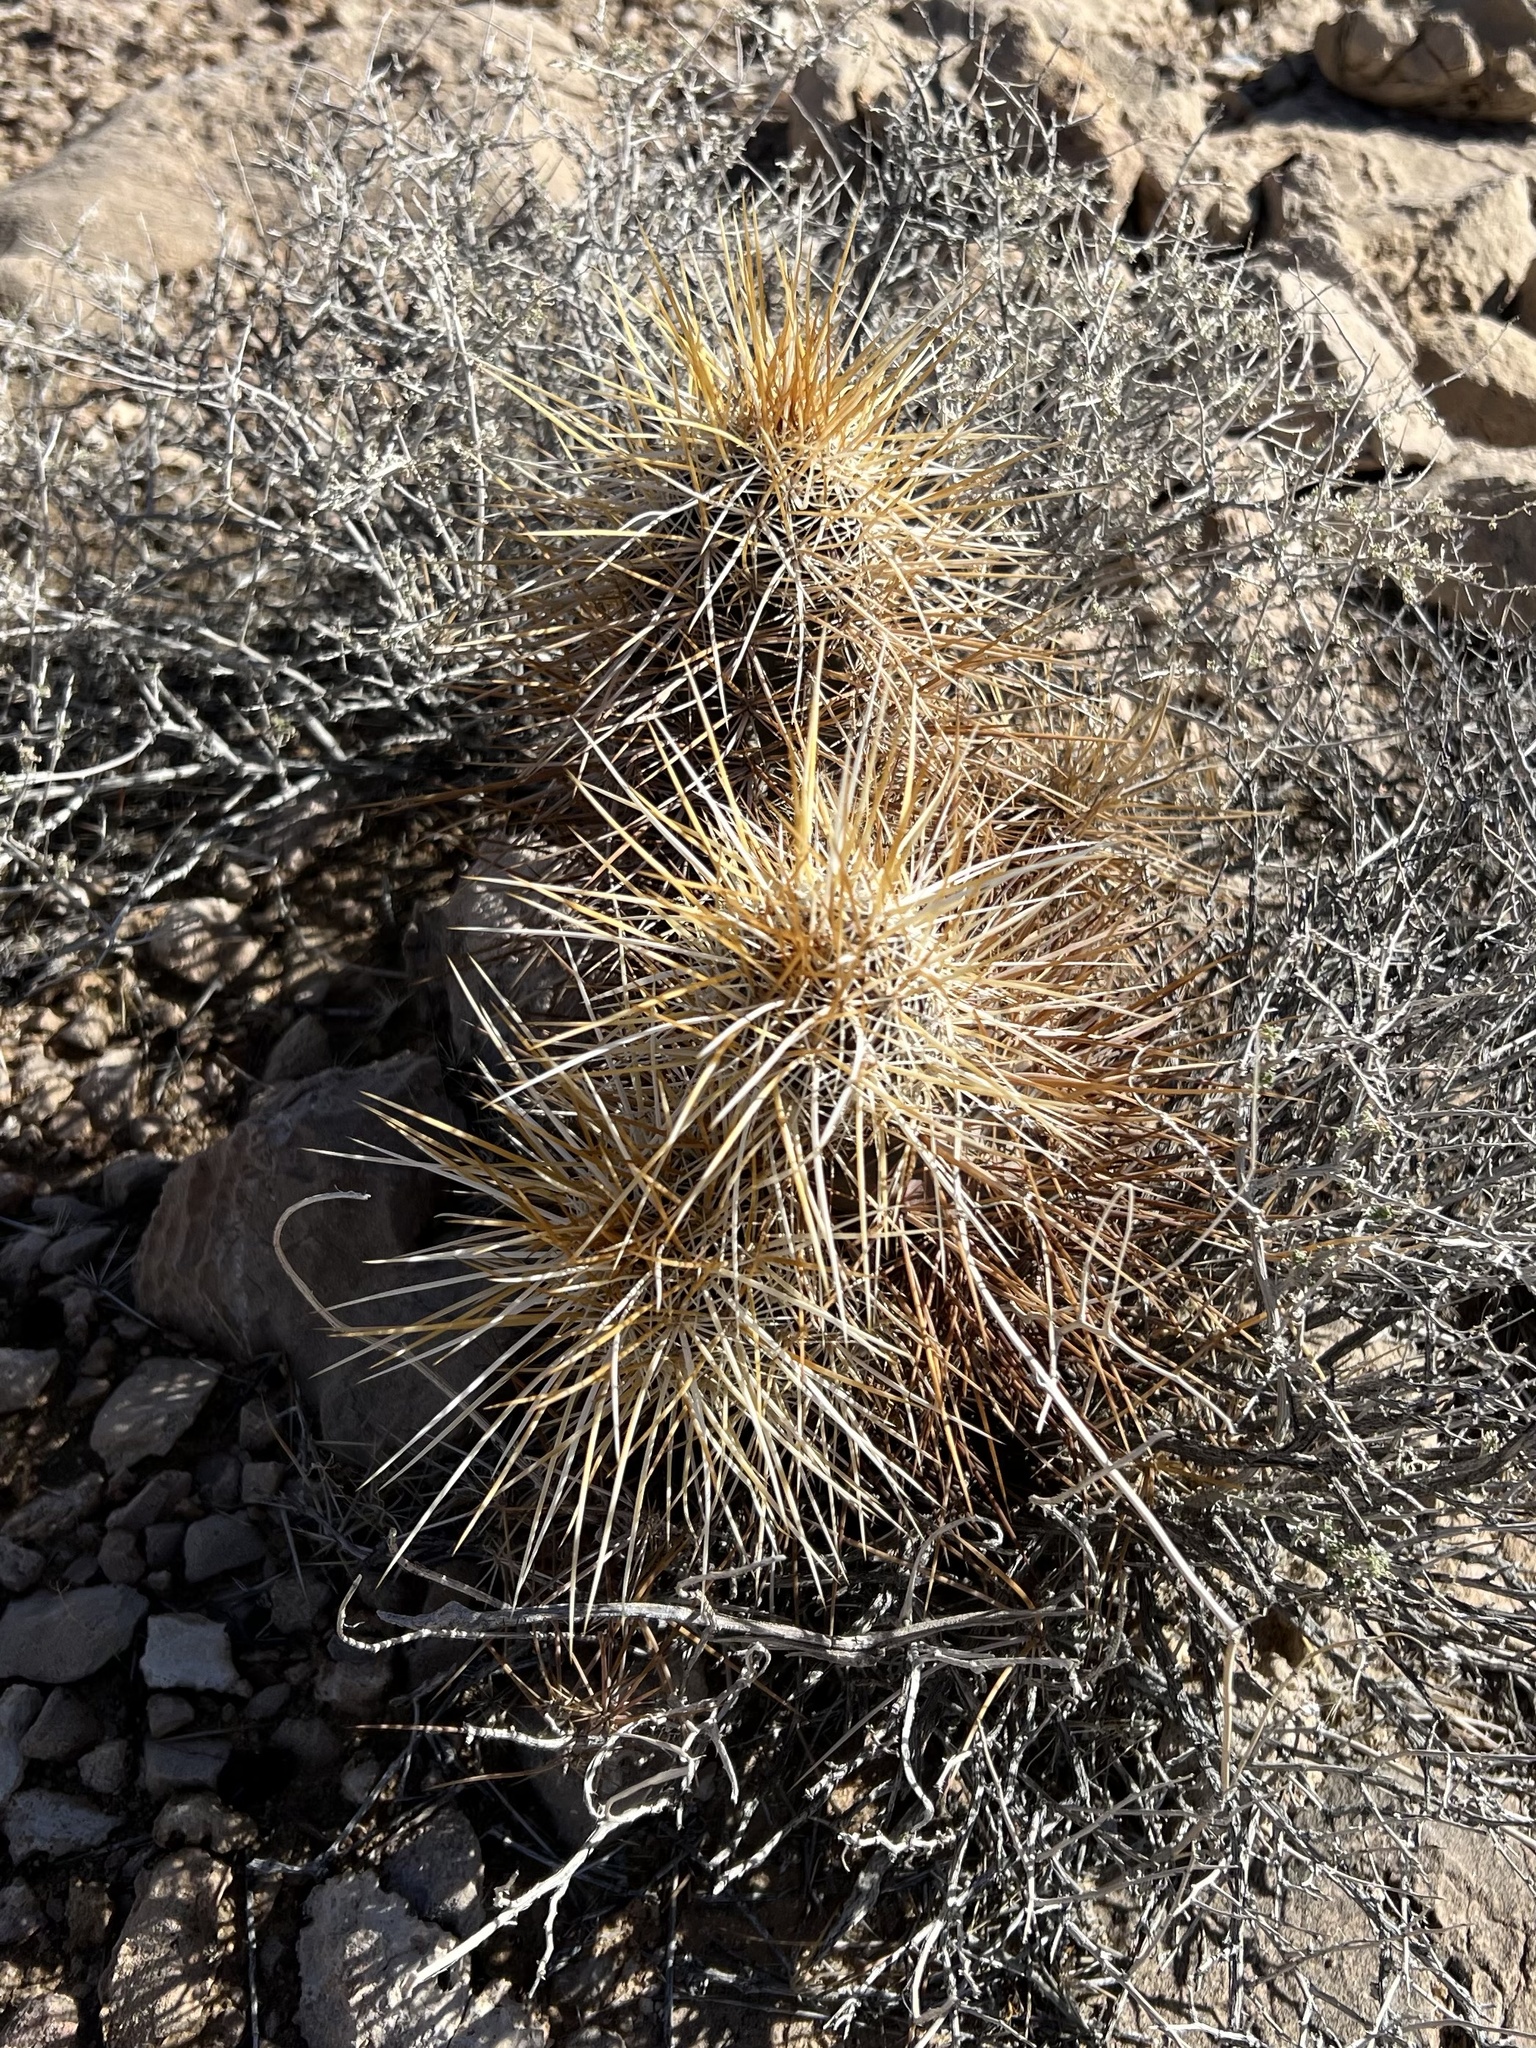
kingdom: Plantae
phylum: Tracheophyta
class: Magnoliopsida
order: Caryophyllales
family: Cactaceae
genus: Echinocereus
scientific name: Echinocereus engelmannii
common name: Engelmann's hedgehog cactus
